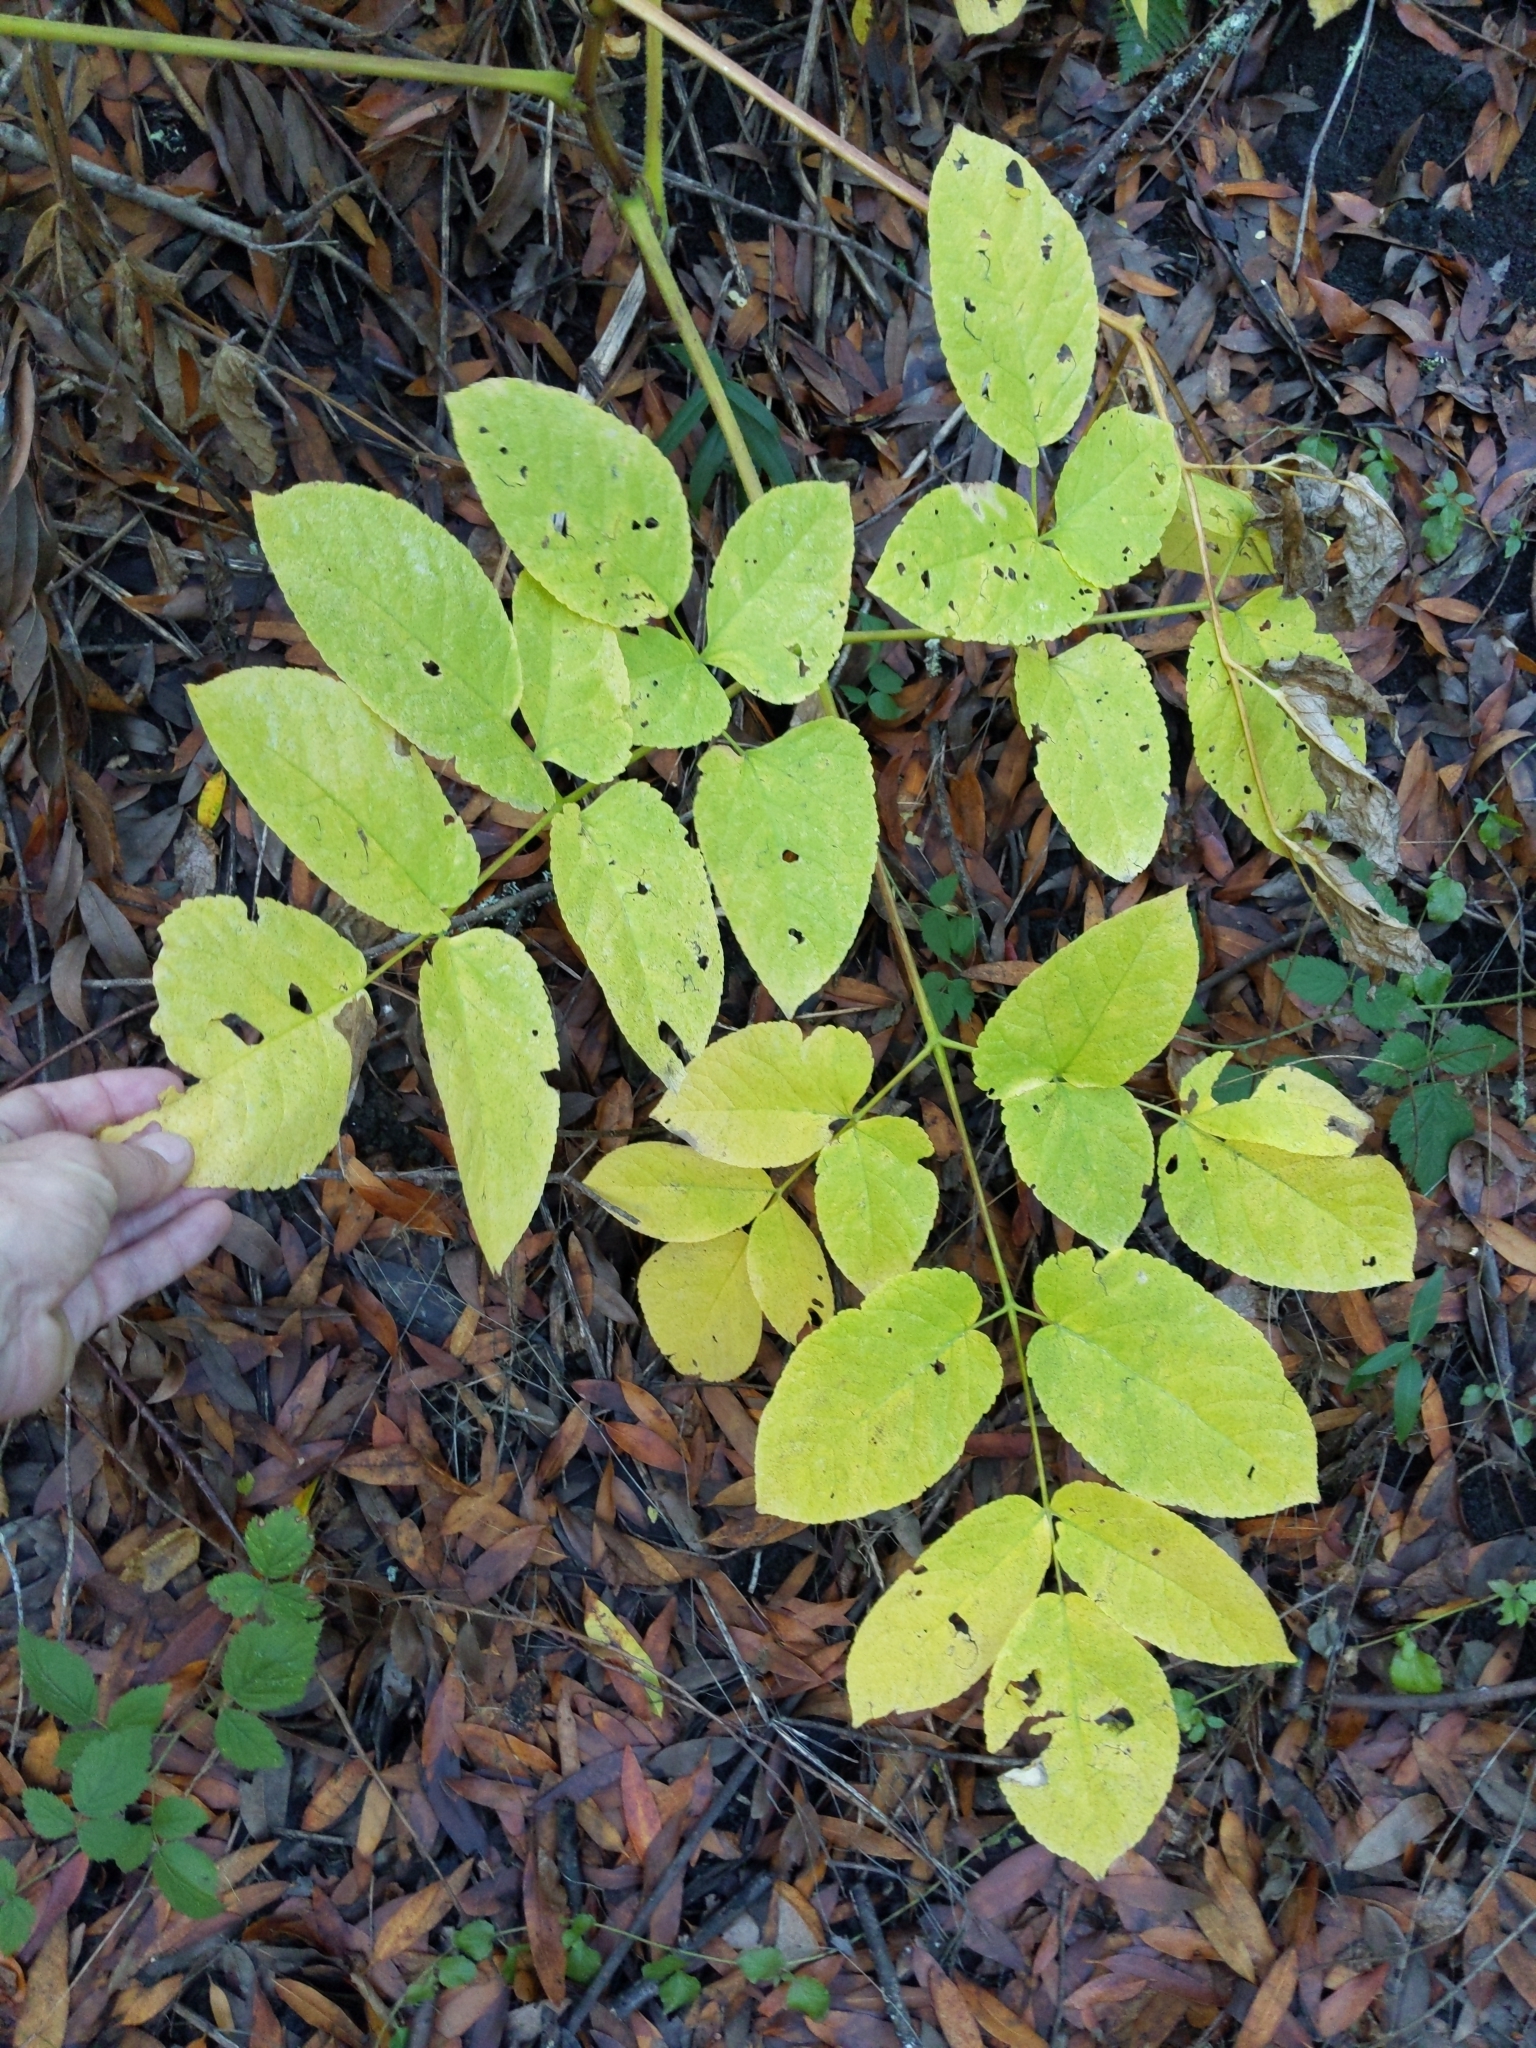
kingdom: Plantae
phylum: Tracheophyta
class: Magnoliopsida
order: Apiales
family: Araliaceae
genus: Aralia
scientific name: Aralia californica
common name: California-ginseng
